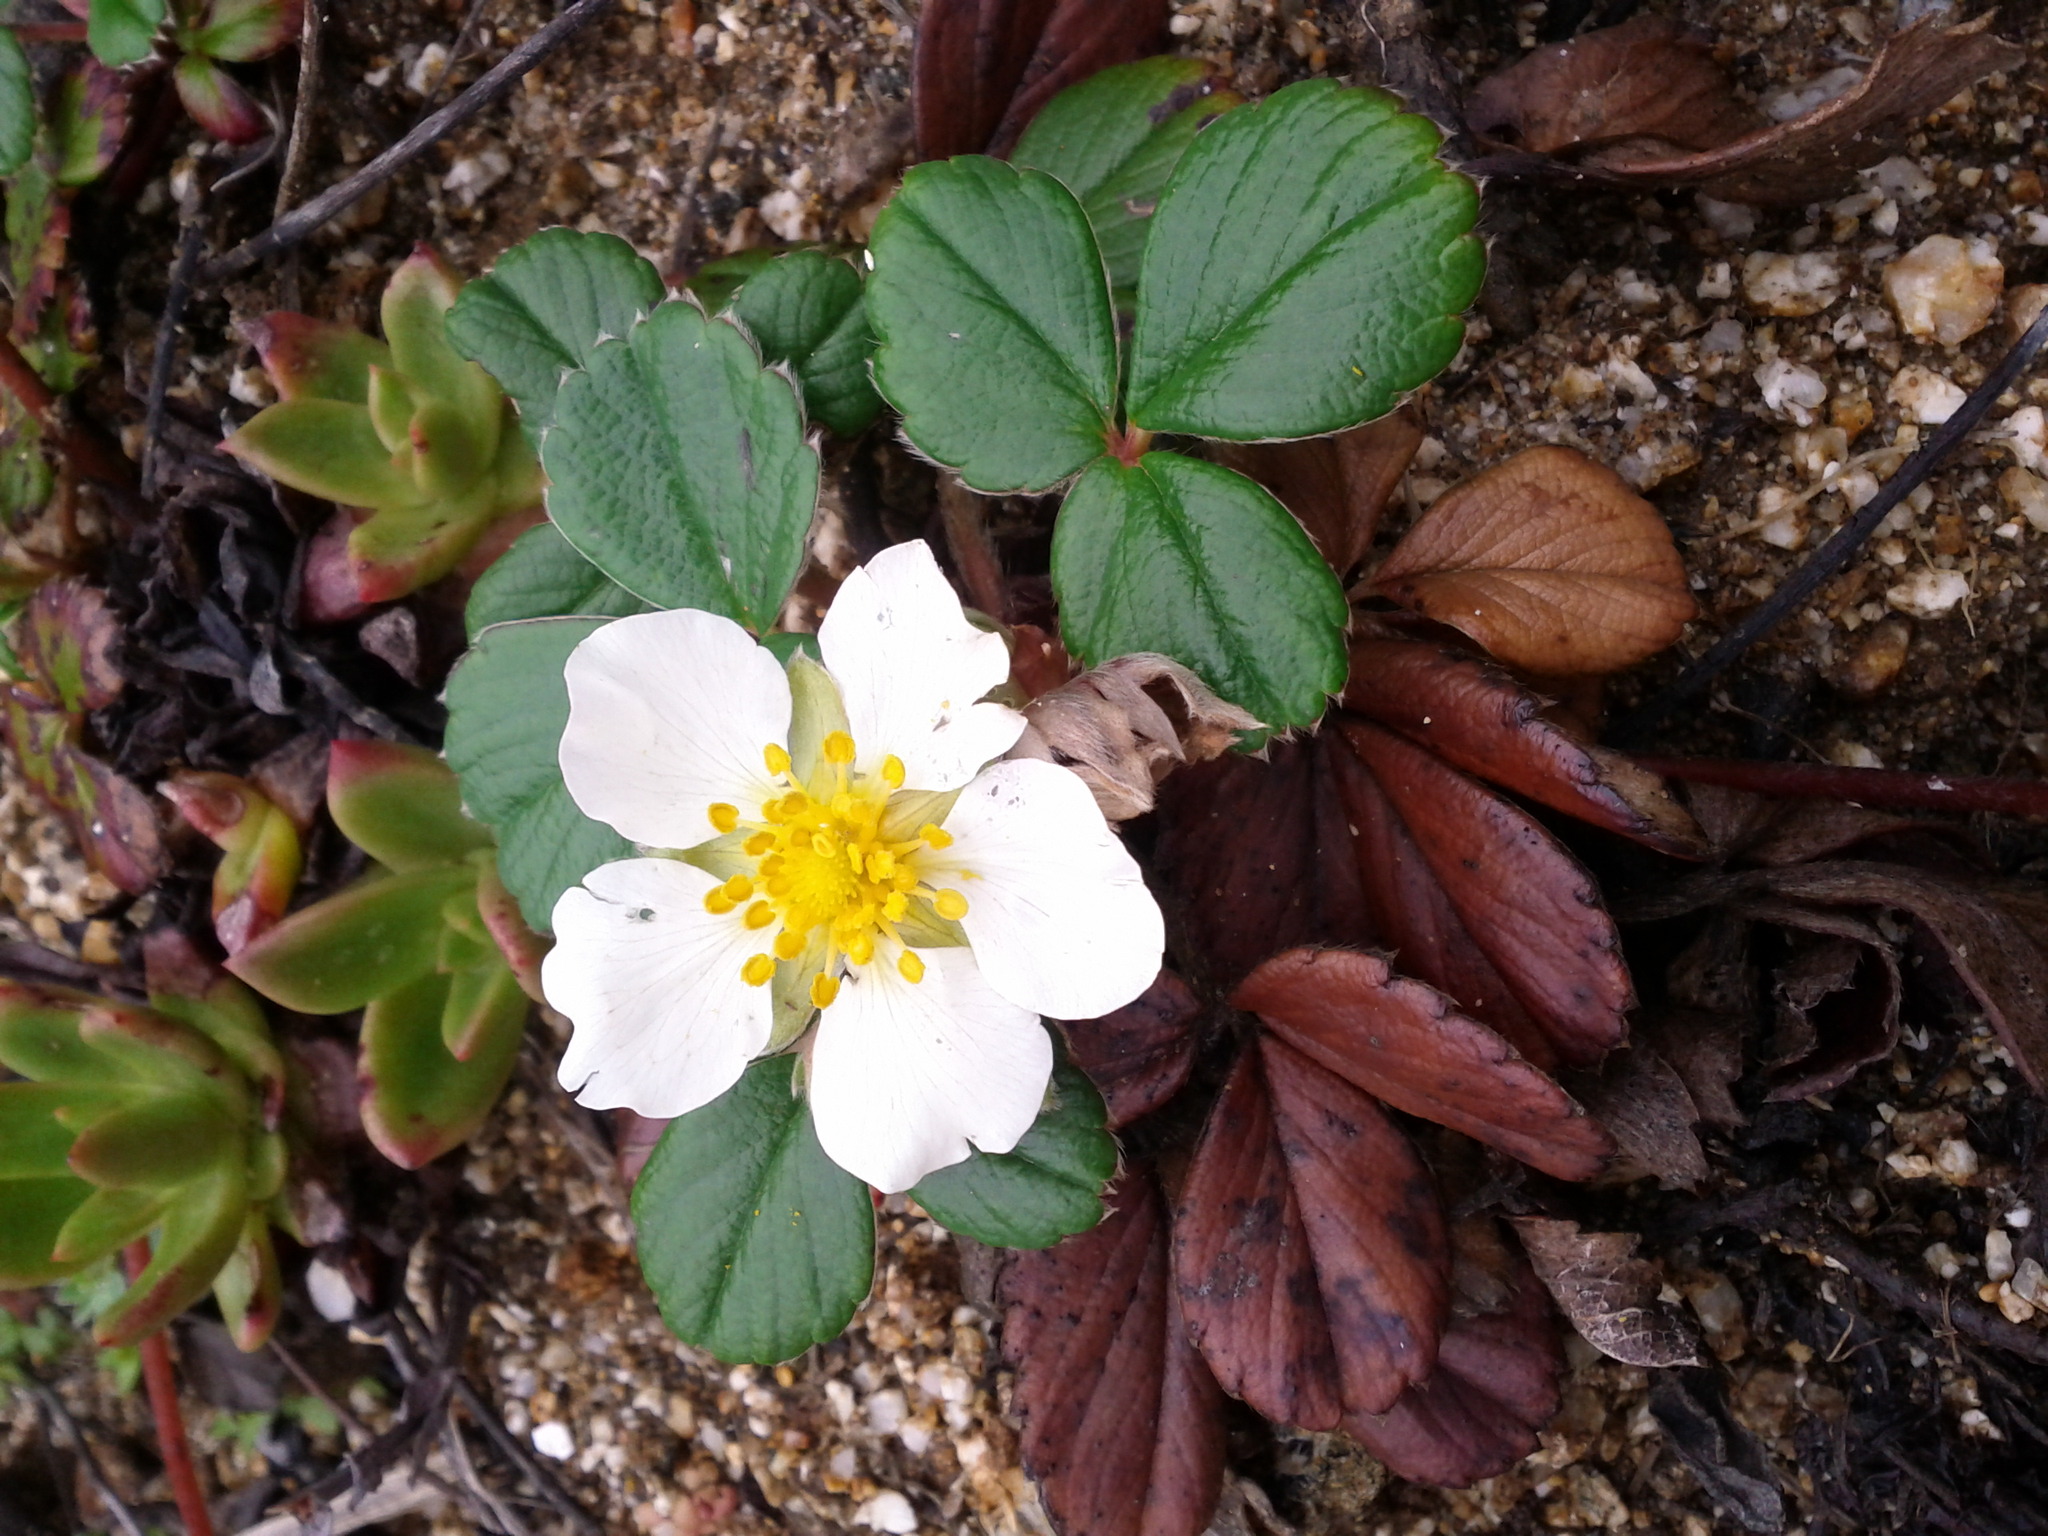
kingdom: Plantae
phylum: Tracheophyta
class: Magnoliopsida
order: Rosales
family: Rosaceae
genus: Fragaria
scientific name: Fragaria chiloensis
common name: Beach strawberry
